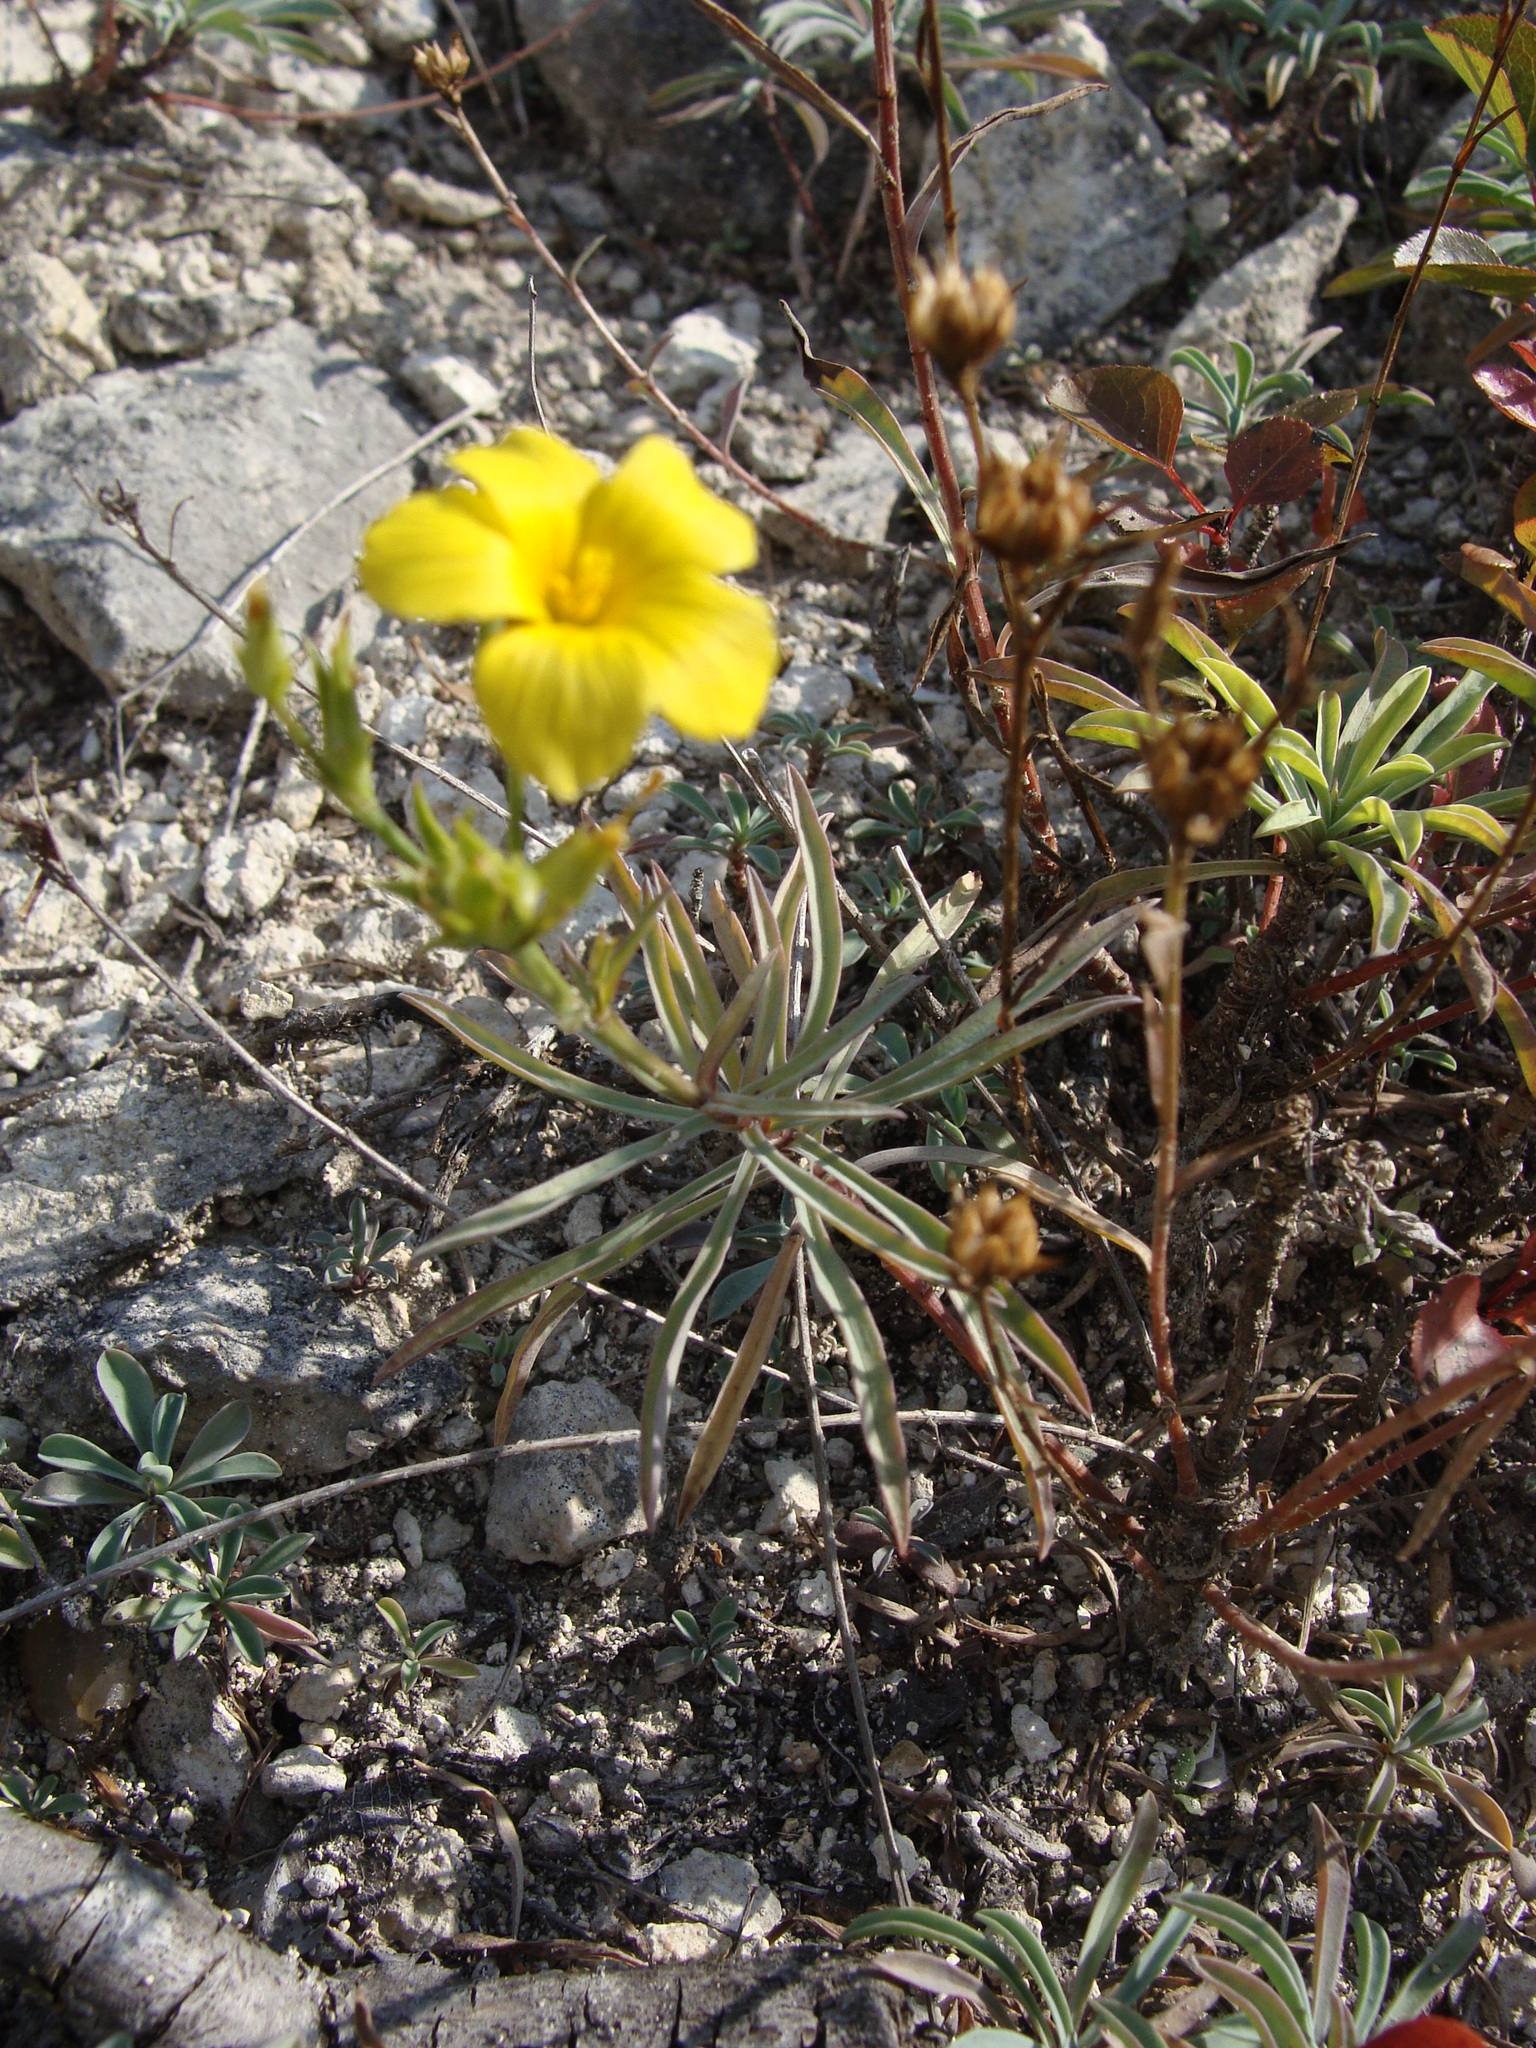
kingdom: Plantae
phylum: Tracheophyta
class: Magnoliopsida
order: Malpighiales
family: Linaceae
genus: Linum
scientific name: Linum basarabicum
